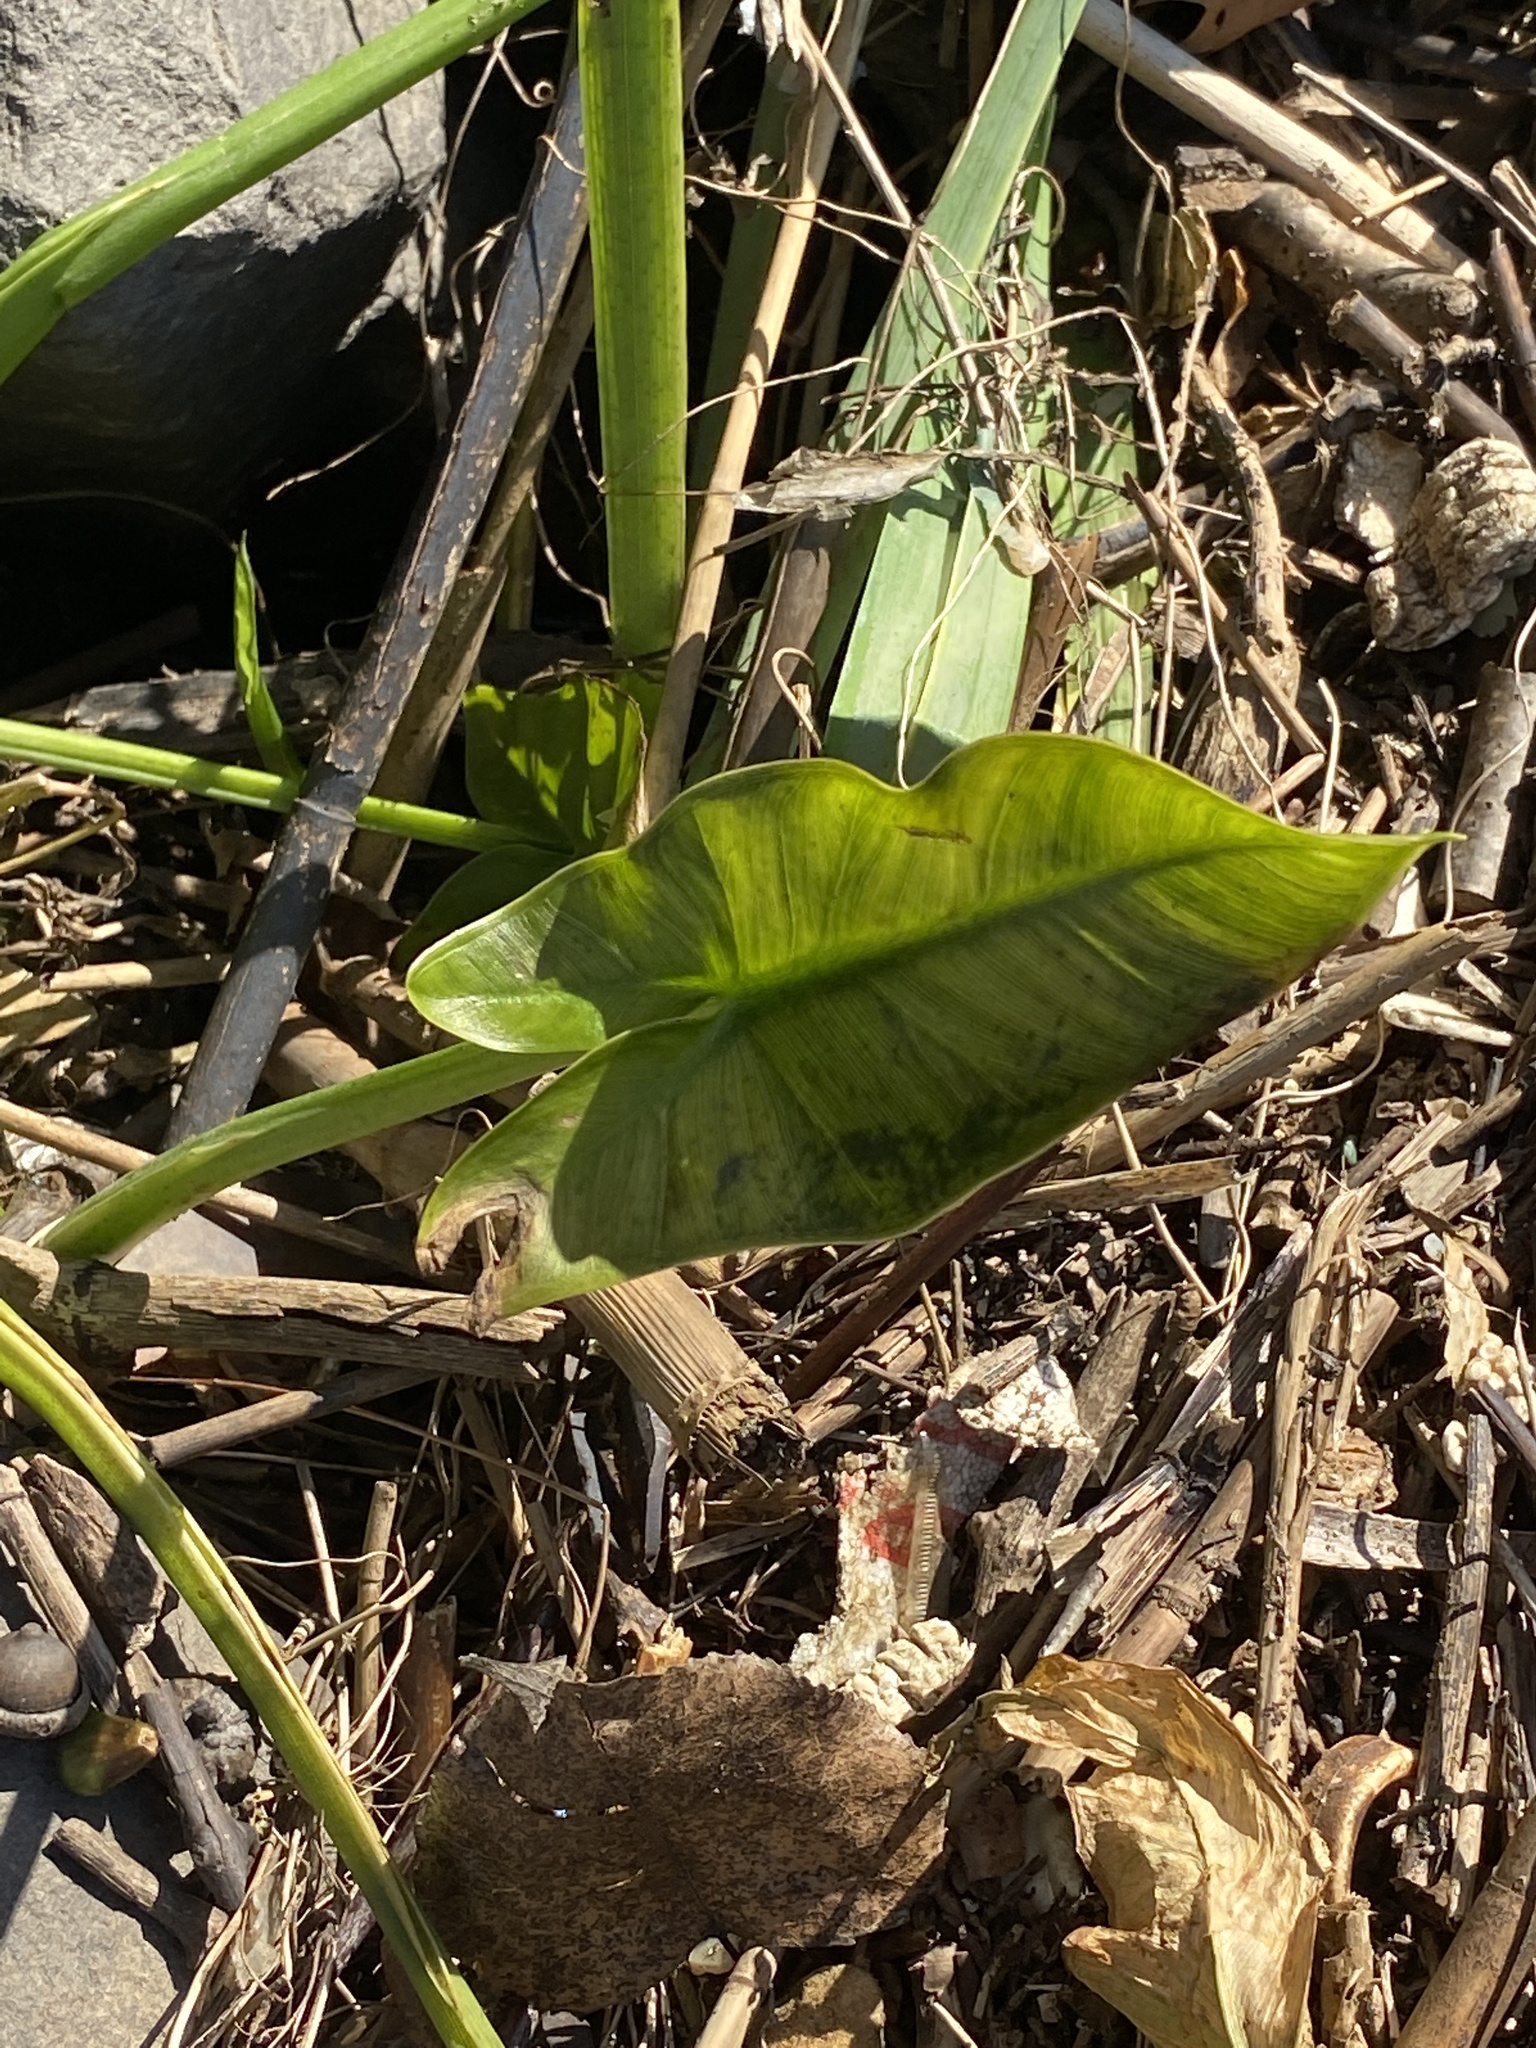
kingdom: Plantae
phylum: Tracheophyta
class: Liliopsida
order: Alismatales
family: Araceae
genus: Peltandra
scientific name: Peltandra virginica
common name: Arrow arum
